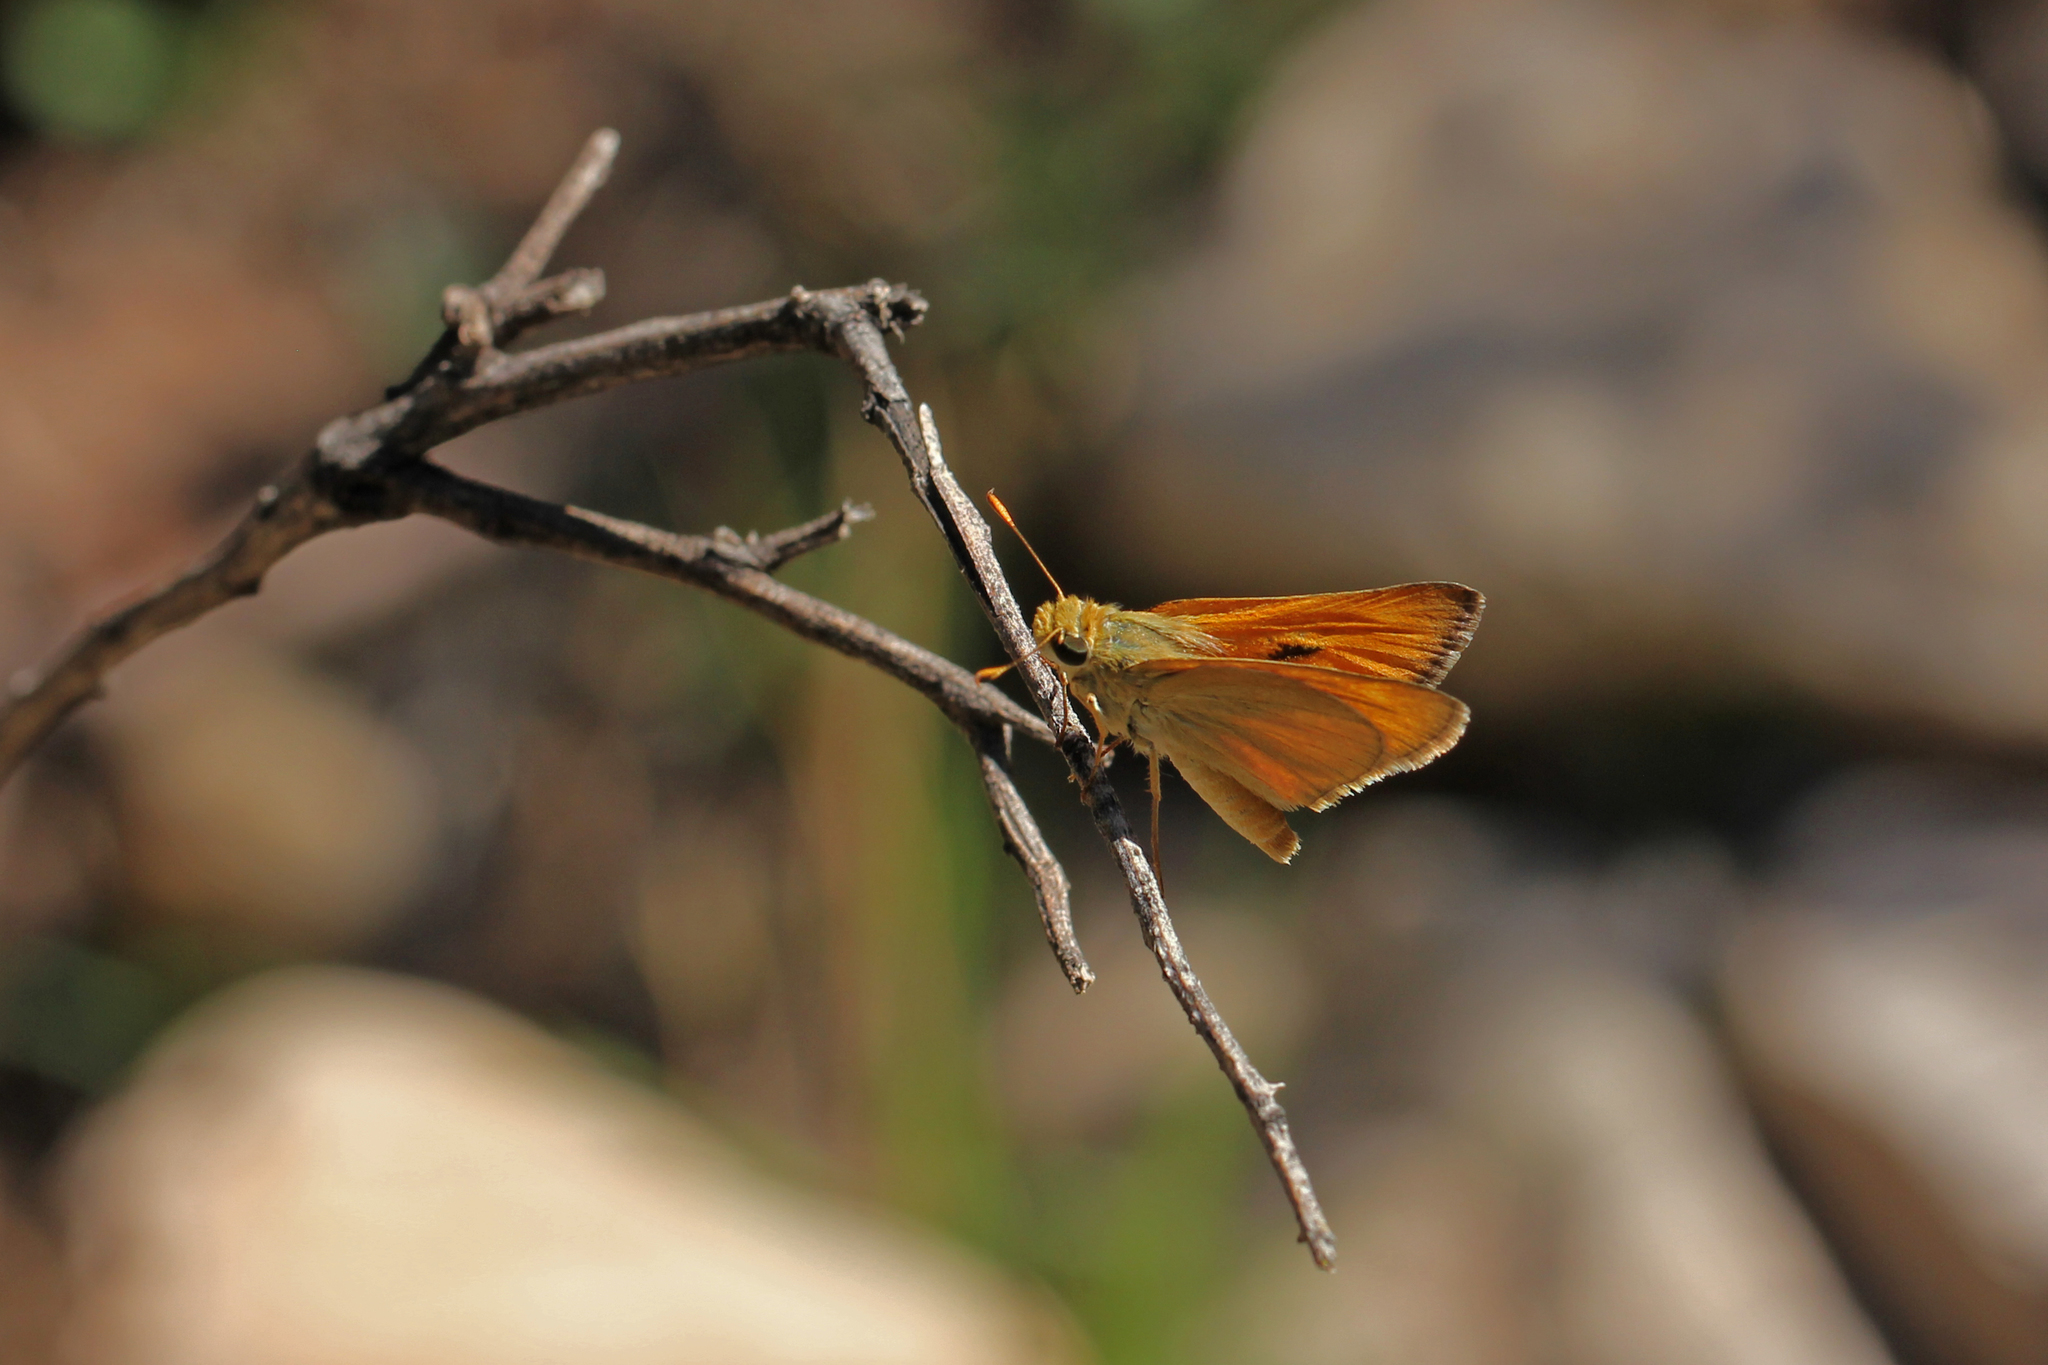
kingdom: Animalia
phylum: Arthropoda
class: Insecta
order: Lepidoptera
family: Hesperiidae
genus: Ochlodes
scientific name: Ochlodes sylvanoides
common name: Woodland skipper
